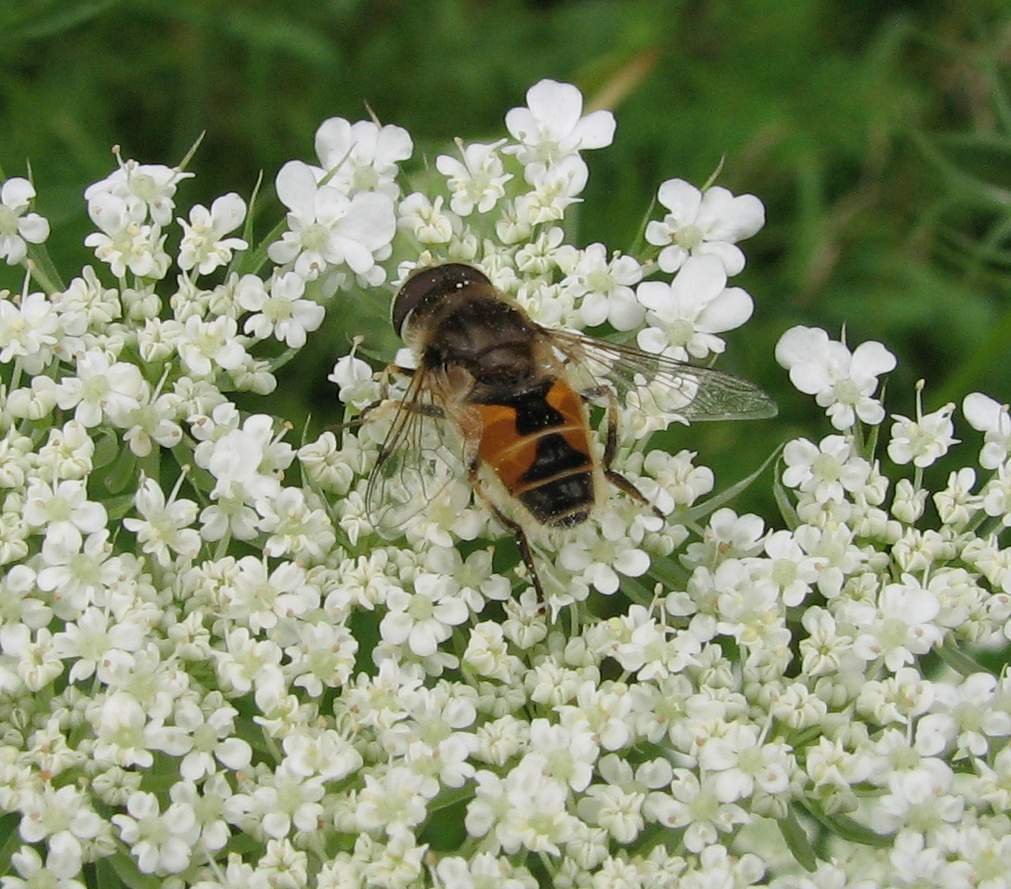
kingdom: Animalia
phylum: Arthropoda
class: Insecta
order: Diptera
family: Syrphidae
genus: Eristalis
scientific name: Eristalis arbustorum
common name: Hover fly
